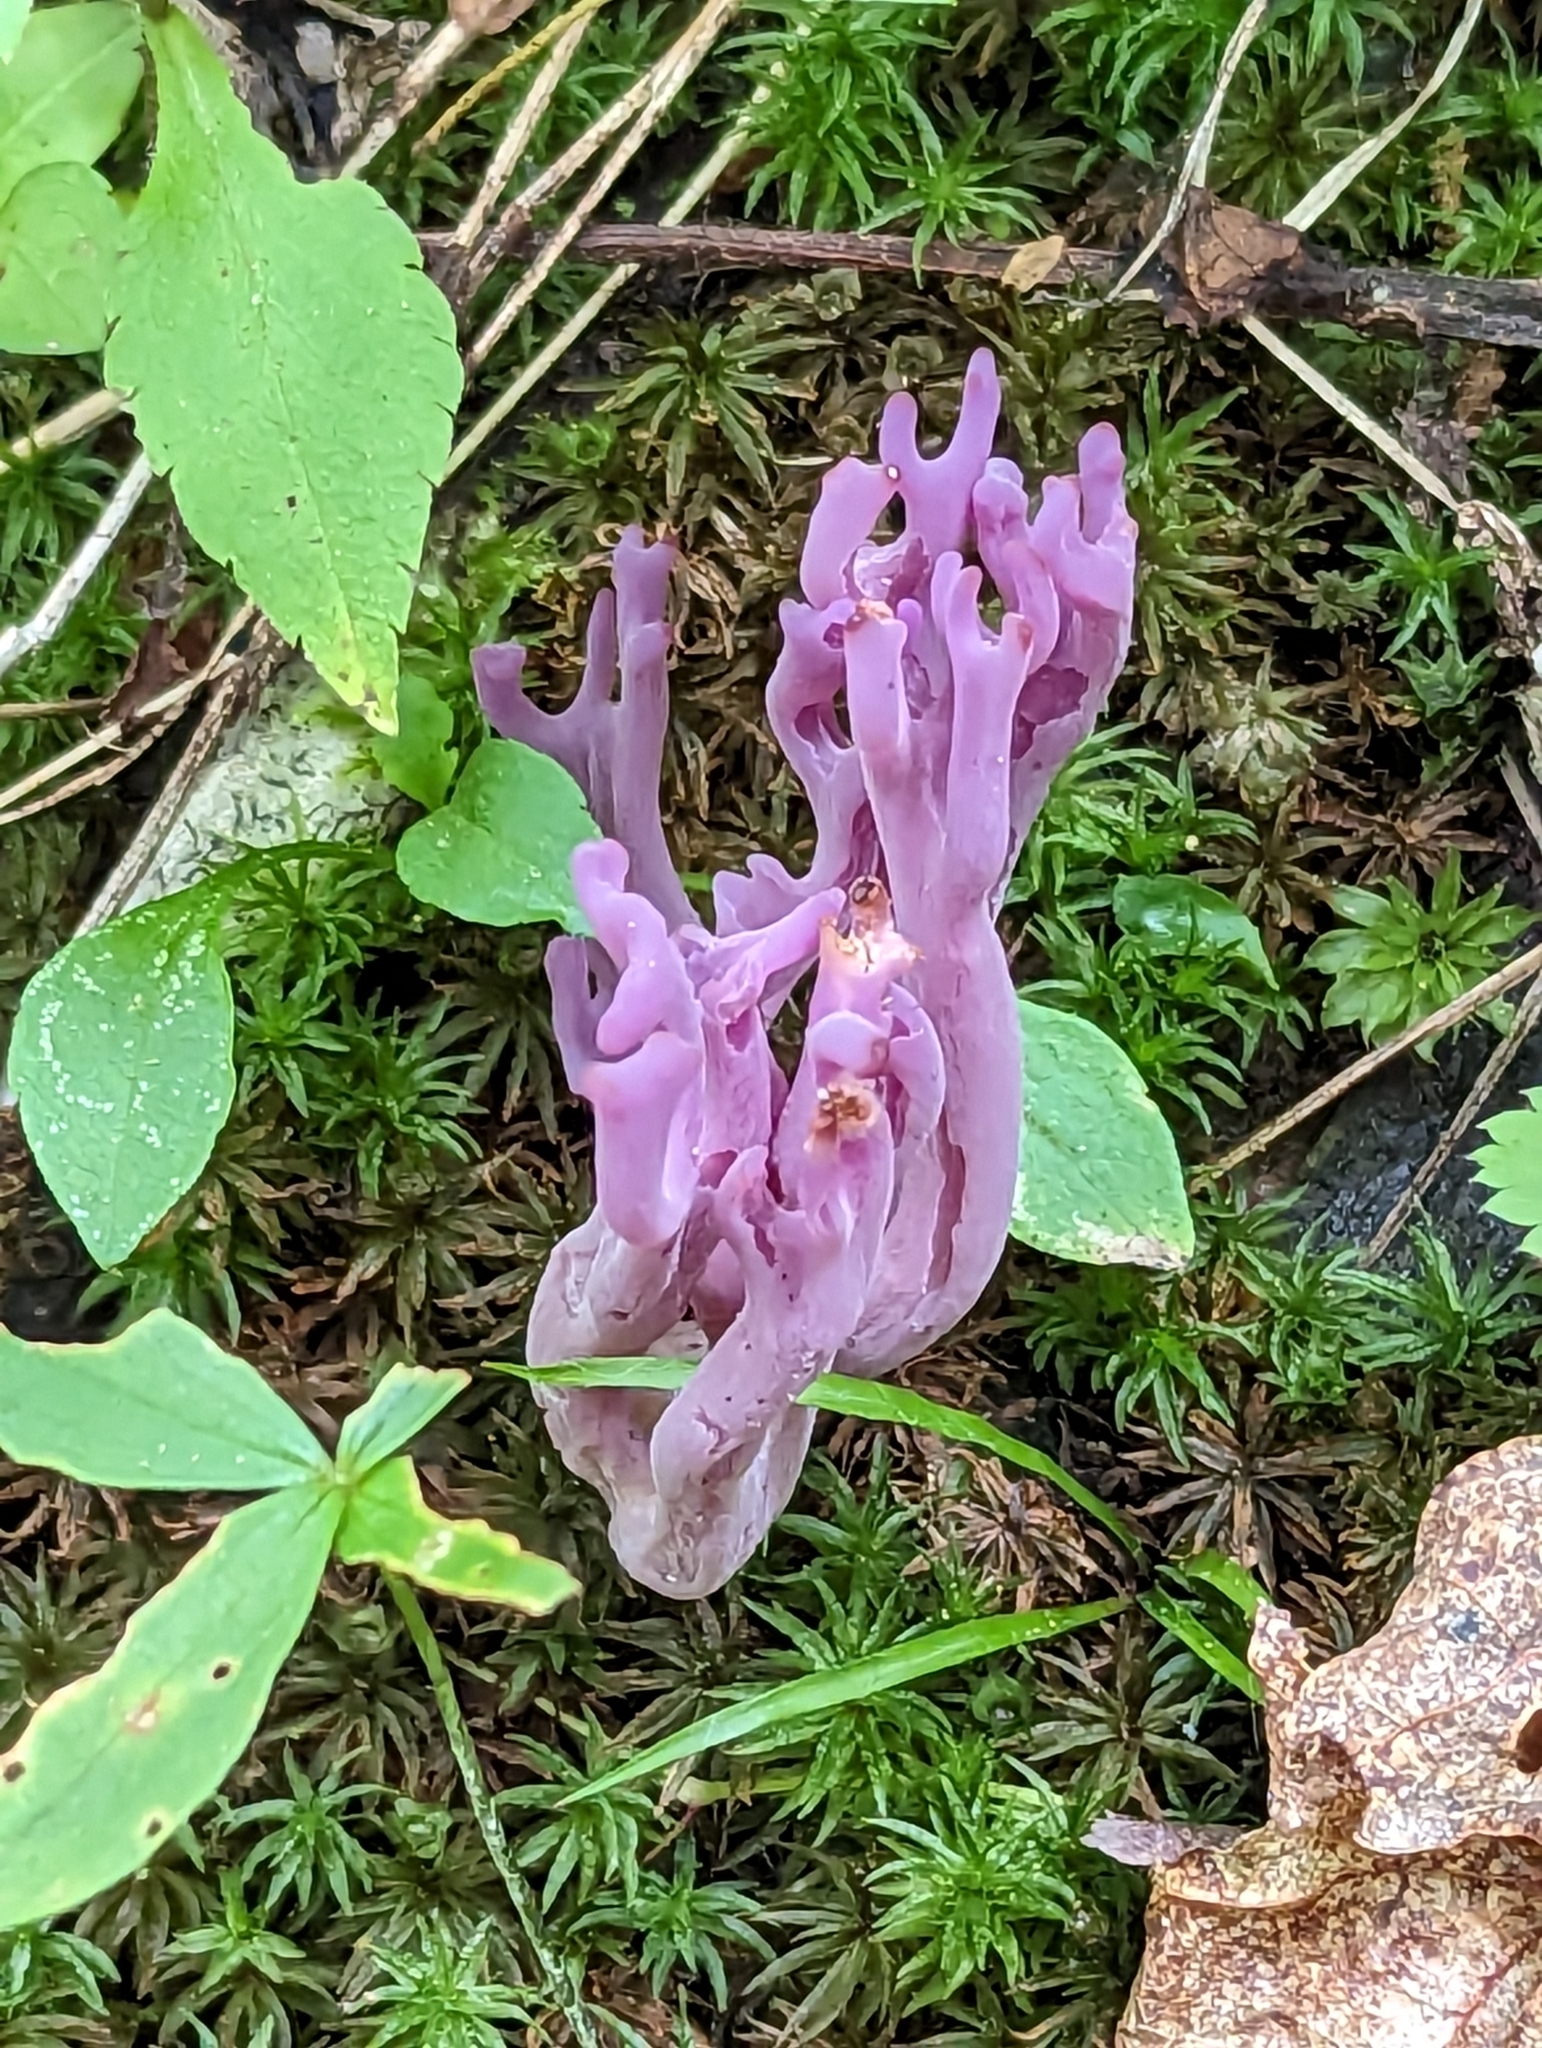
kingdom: Fungi
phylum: Basidiomycota
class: Agaricomycetes
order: Agaricales
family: Clavariaceae
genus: Clavaria
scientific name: Clavaria zollingeri
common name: Violet coral
